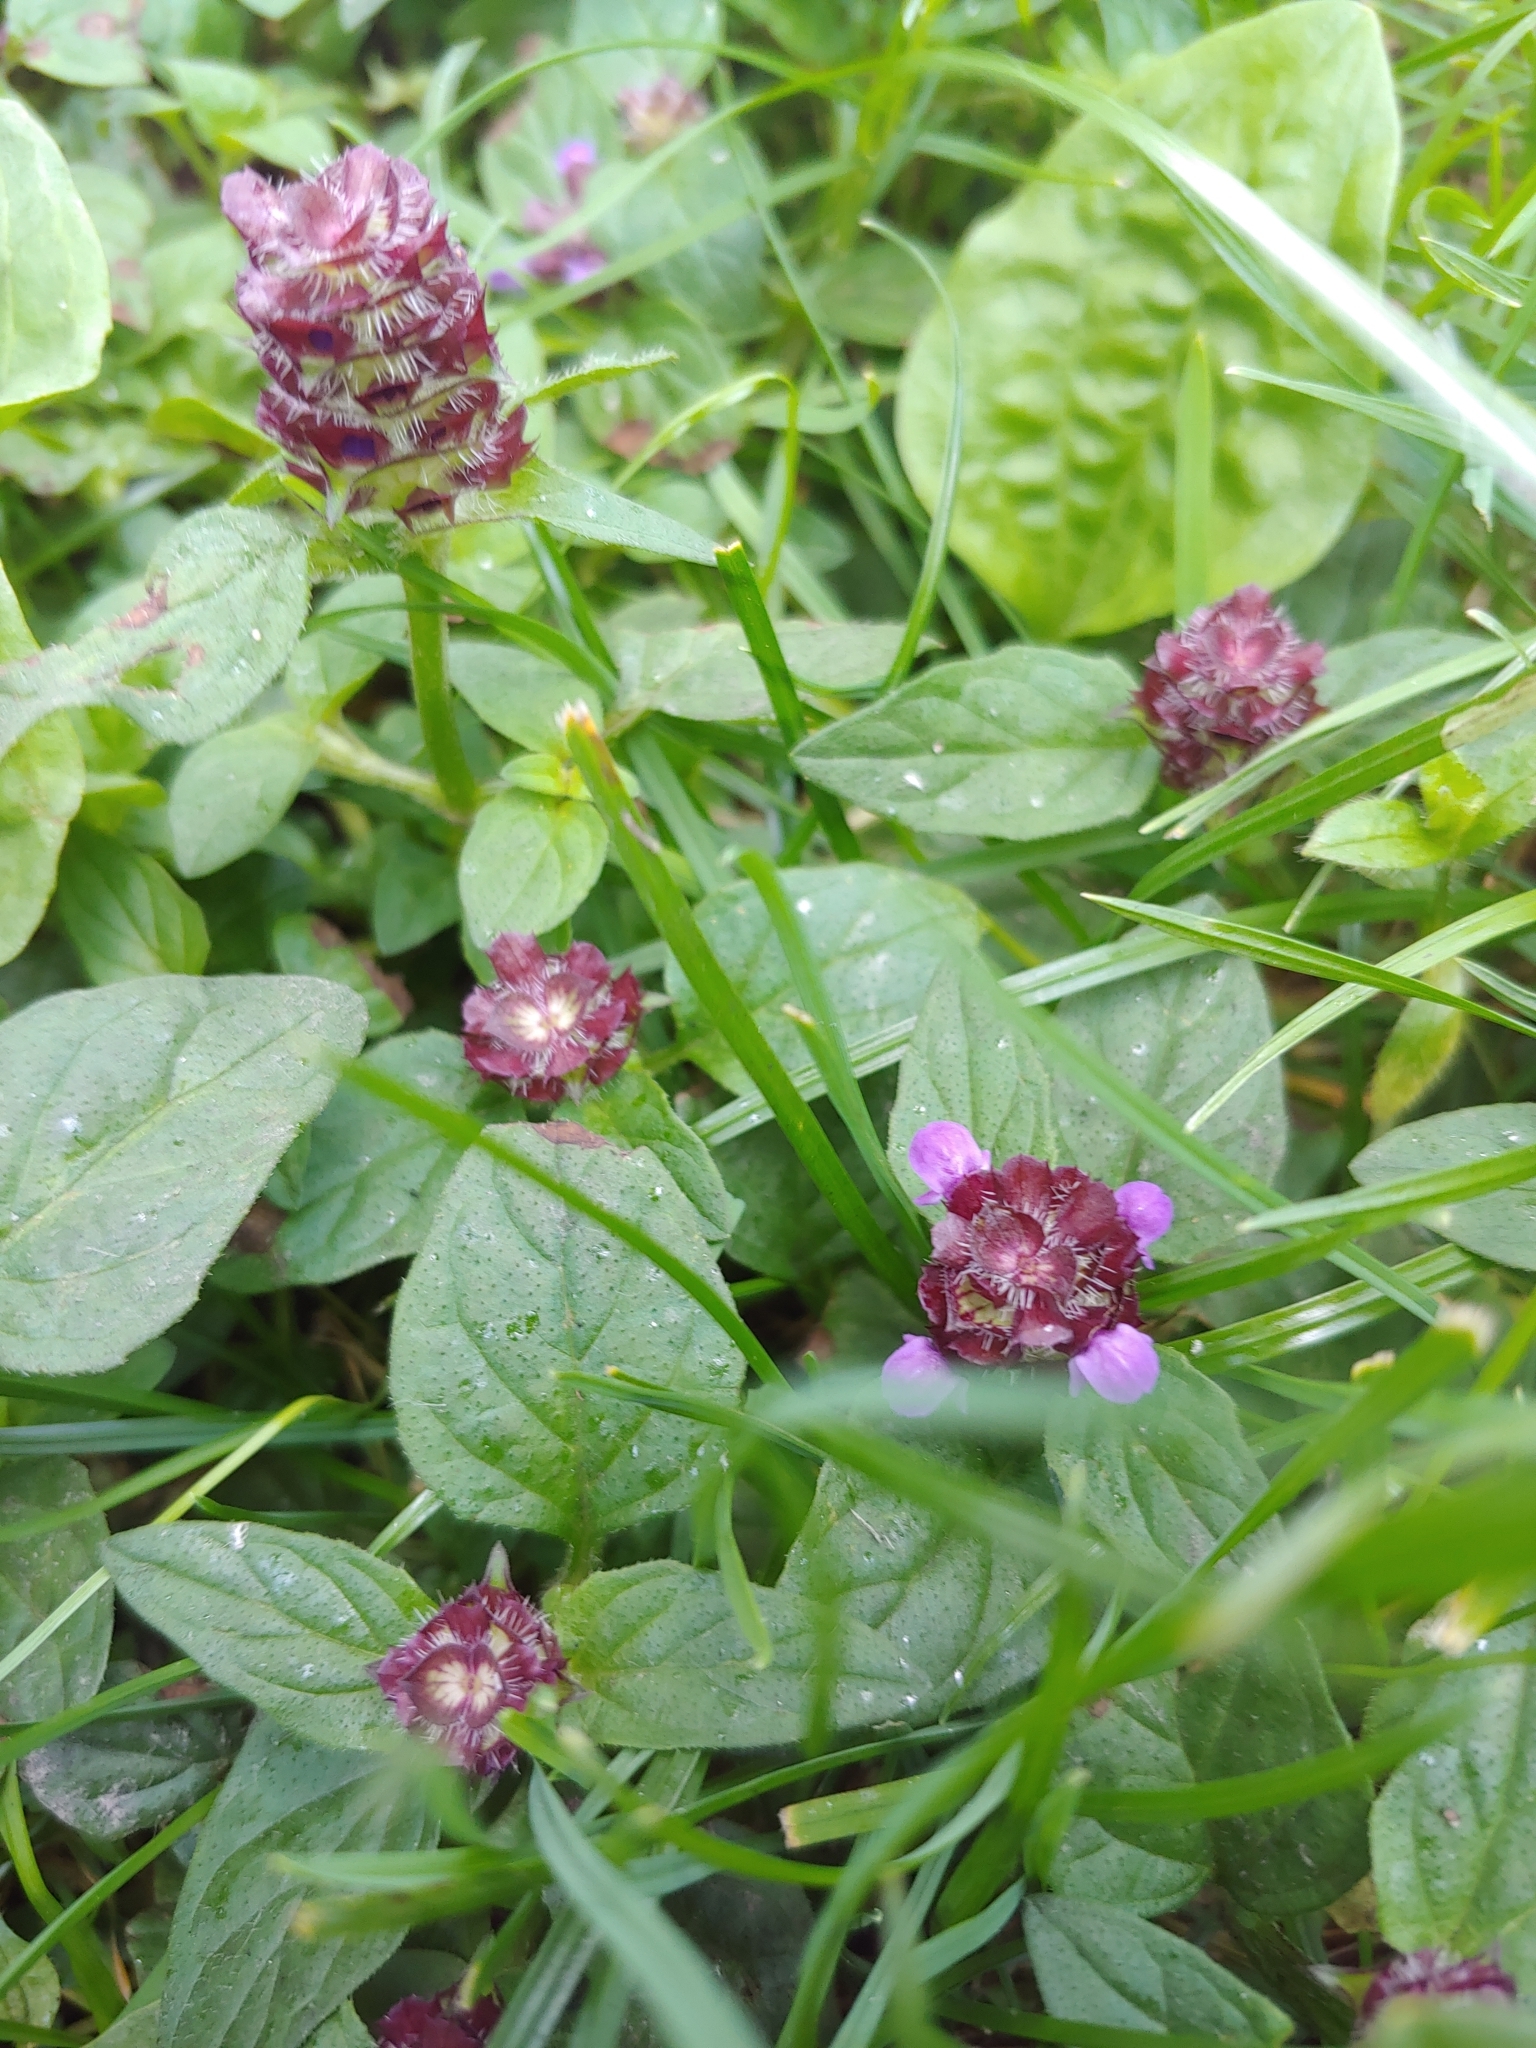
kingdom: Plantae
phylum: Tracheophyta
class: Magnoliopsida
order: Lamiales
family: Lamiaceae
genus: Prunella
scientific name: Prunella vulgaris
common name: Heal-all
